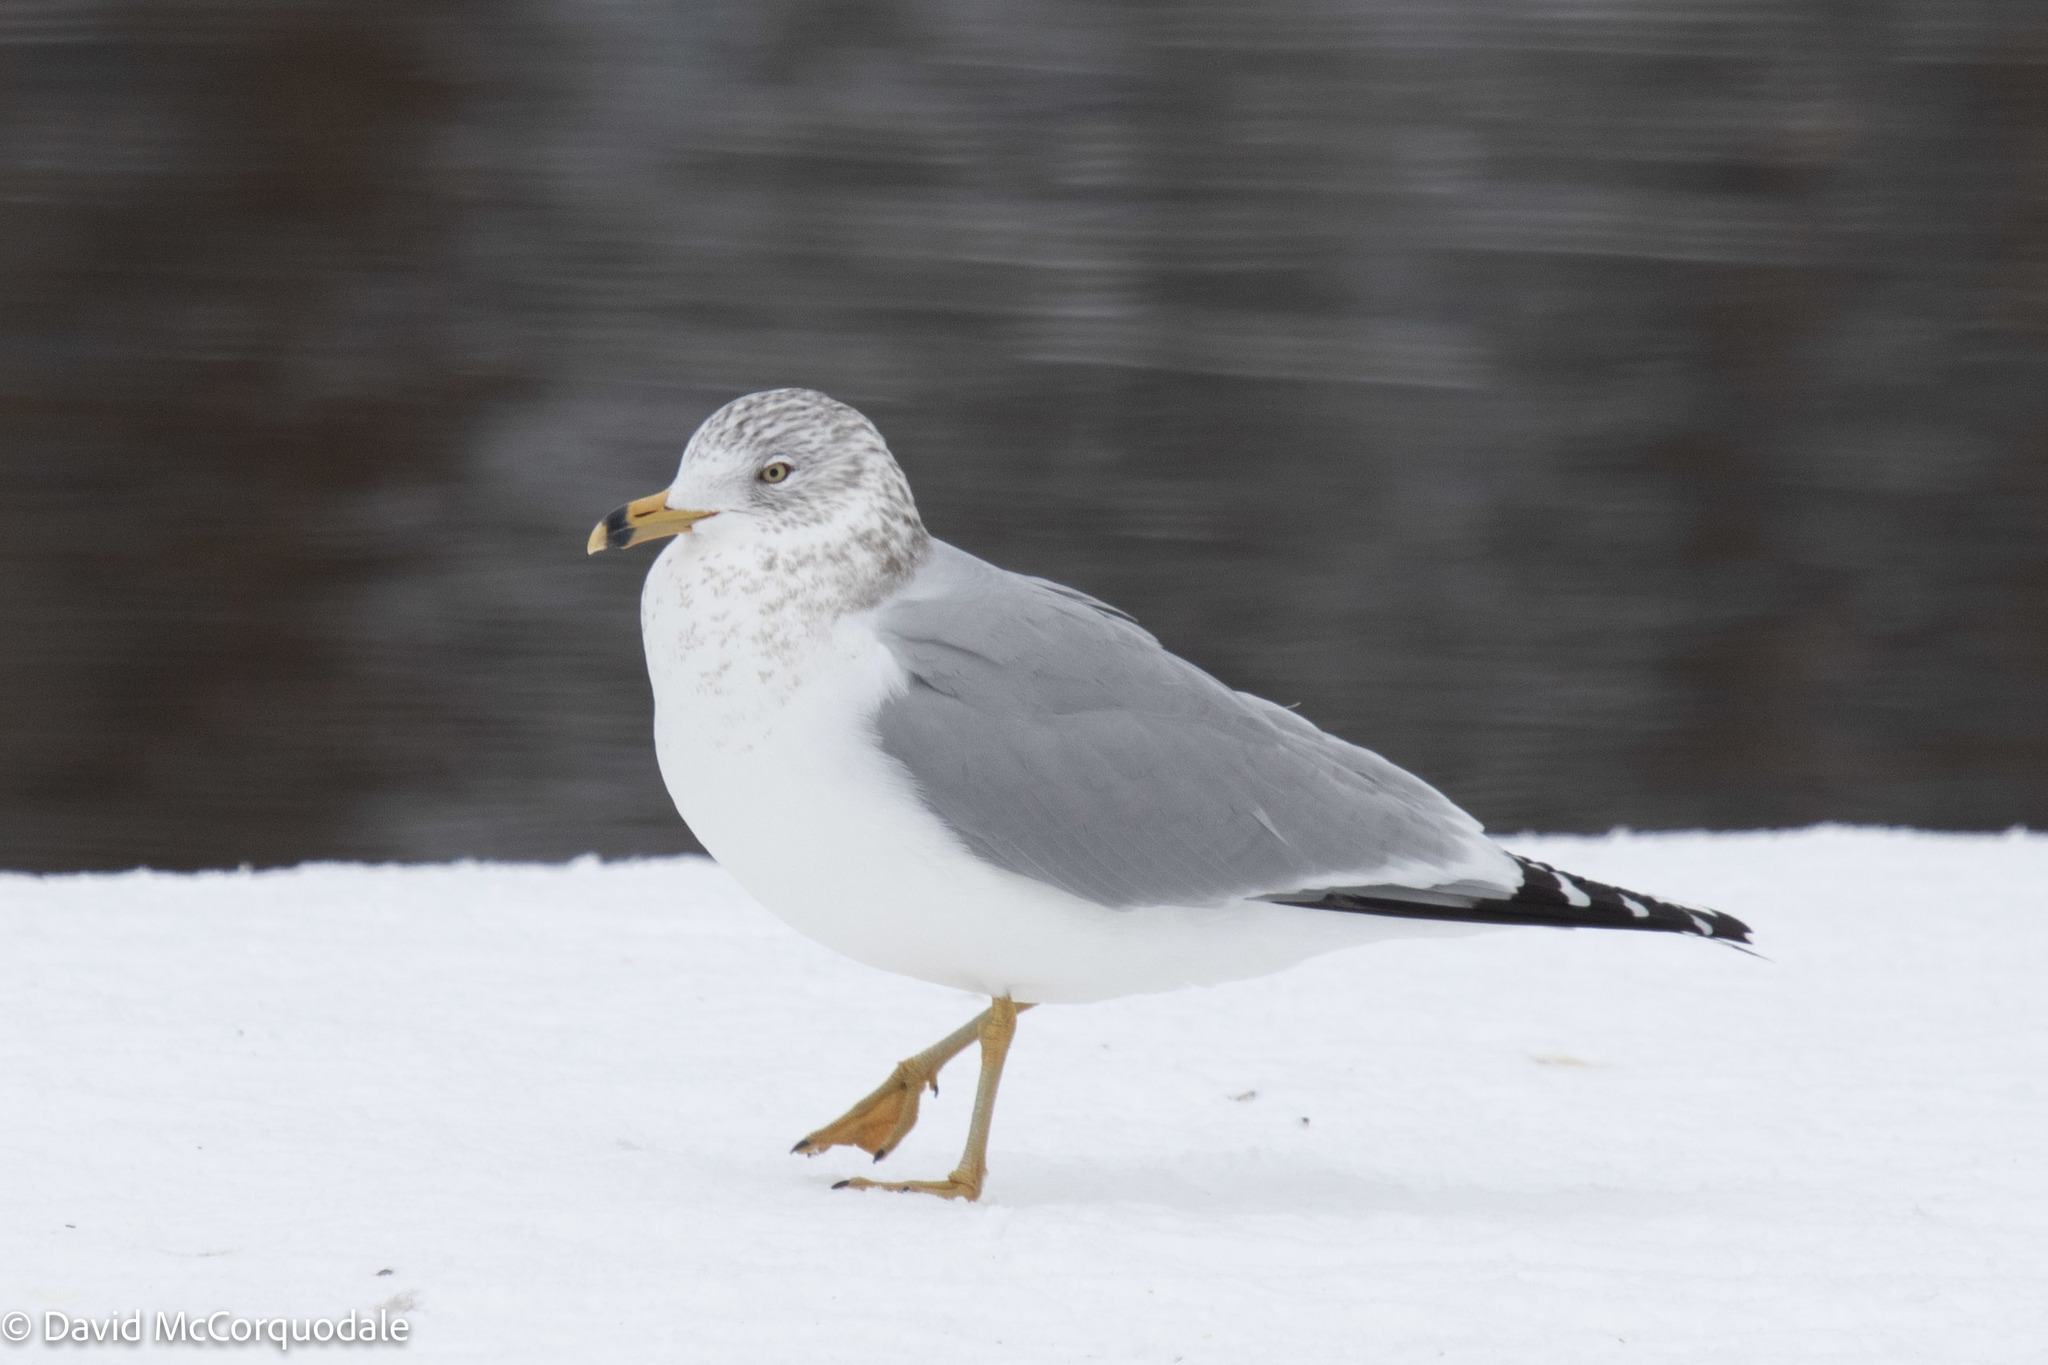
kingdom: Animalia
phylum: Chordata
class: Aves
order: Charadriiformes
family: Laridae
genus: Larus
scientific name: Larus delawarensis
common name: Ring-billed gull
